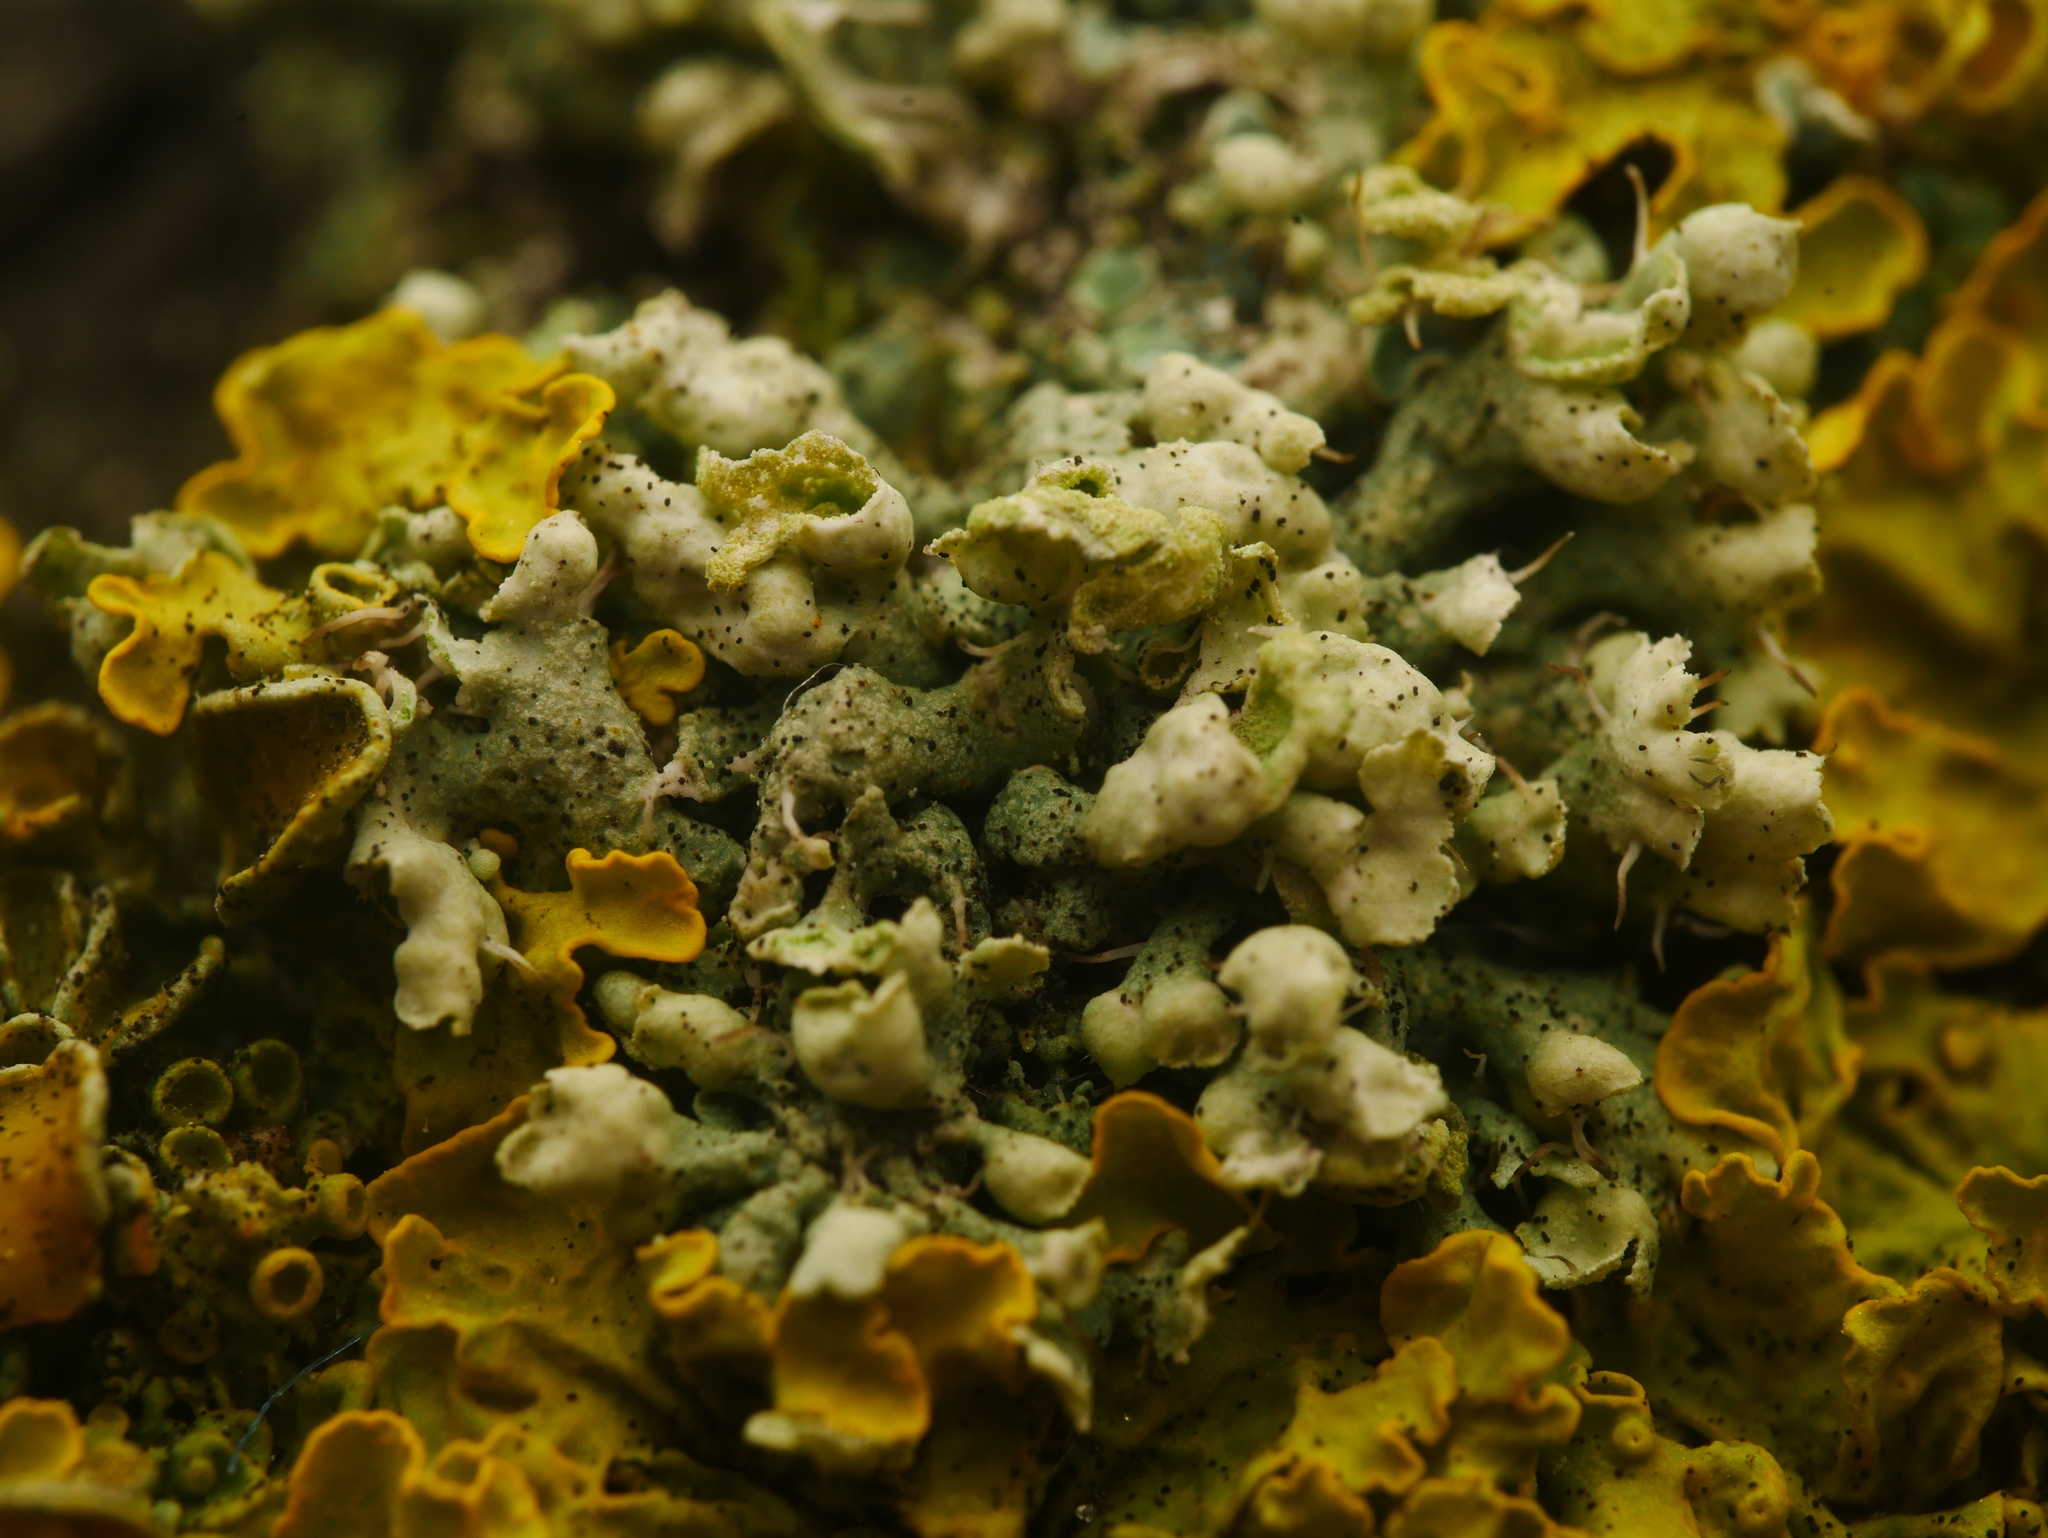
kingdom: Fungi
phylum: Ascomycota
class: Lecanoromycetes
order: Caliciales
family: Physciaceae
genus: Physcia
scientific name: Physcia adscendens
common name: Hooded rosette lichen
